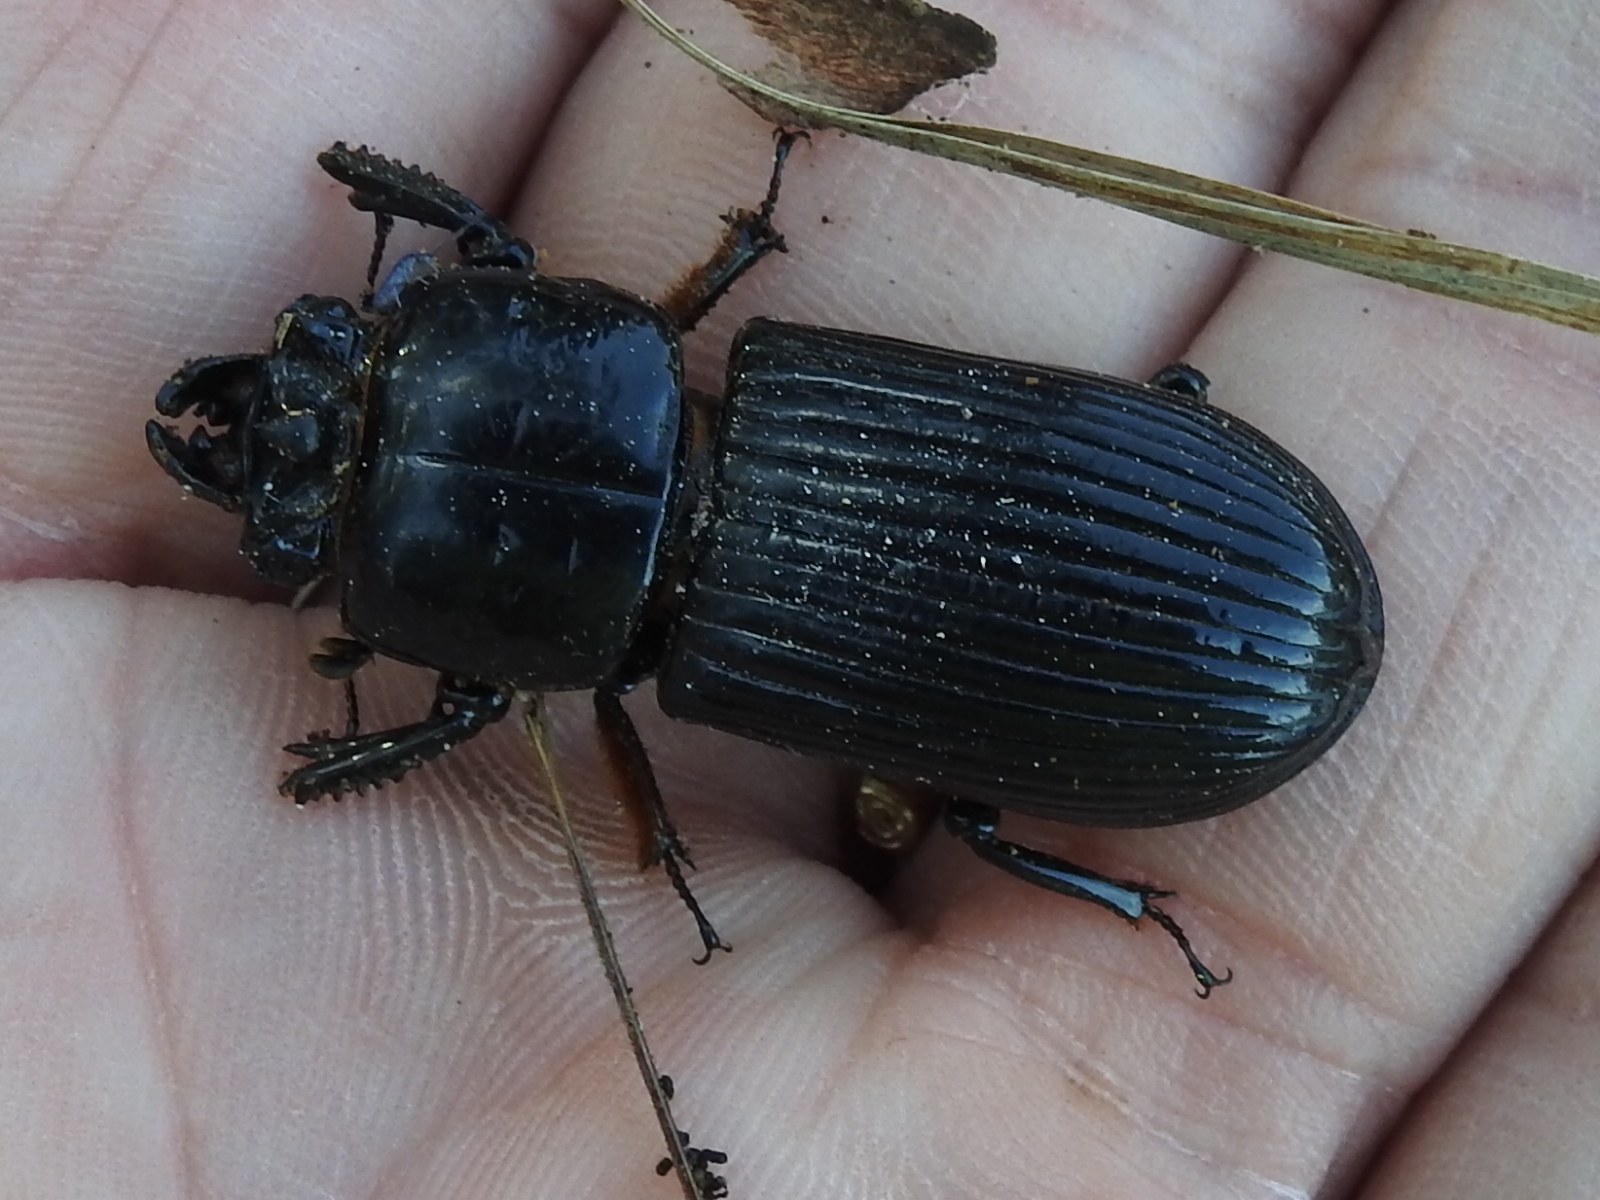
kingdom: Animalia
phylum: Arthropoda
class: Insecta
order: Coleoptera
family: Passalidae
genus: Odontotaenius
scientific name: Odontotaenius disjunctus
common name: Patent leather beetle
